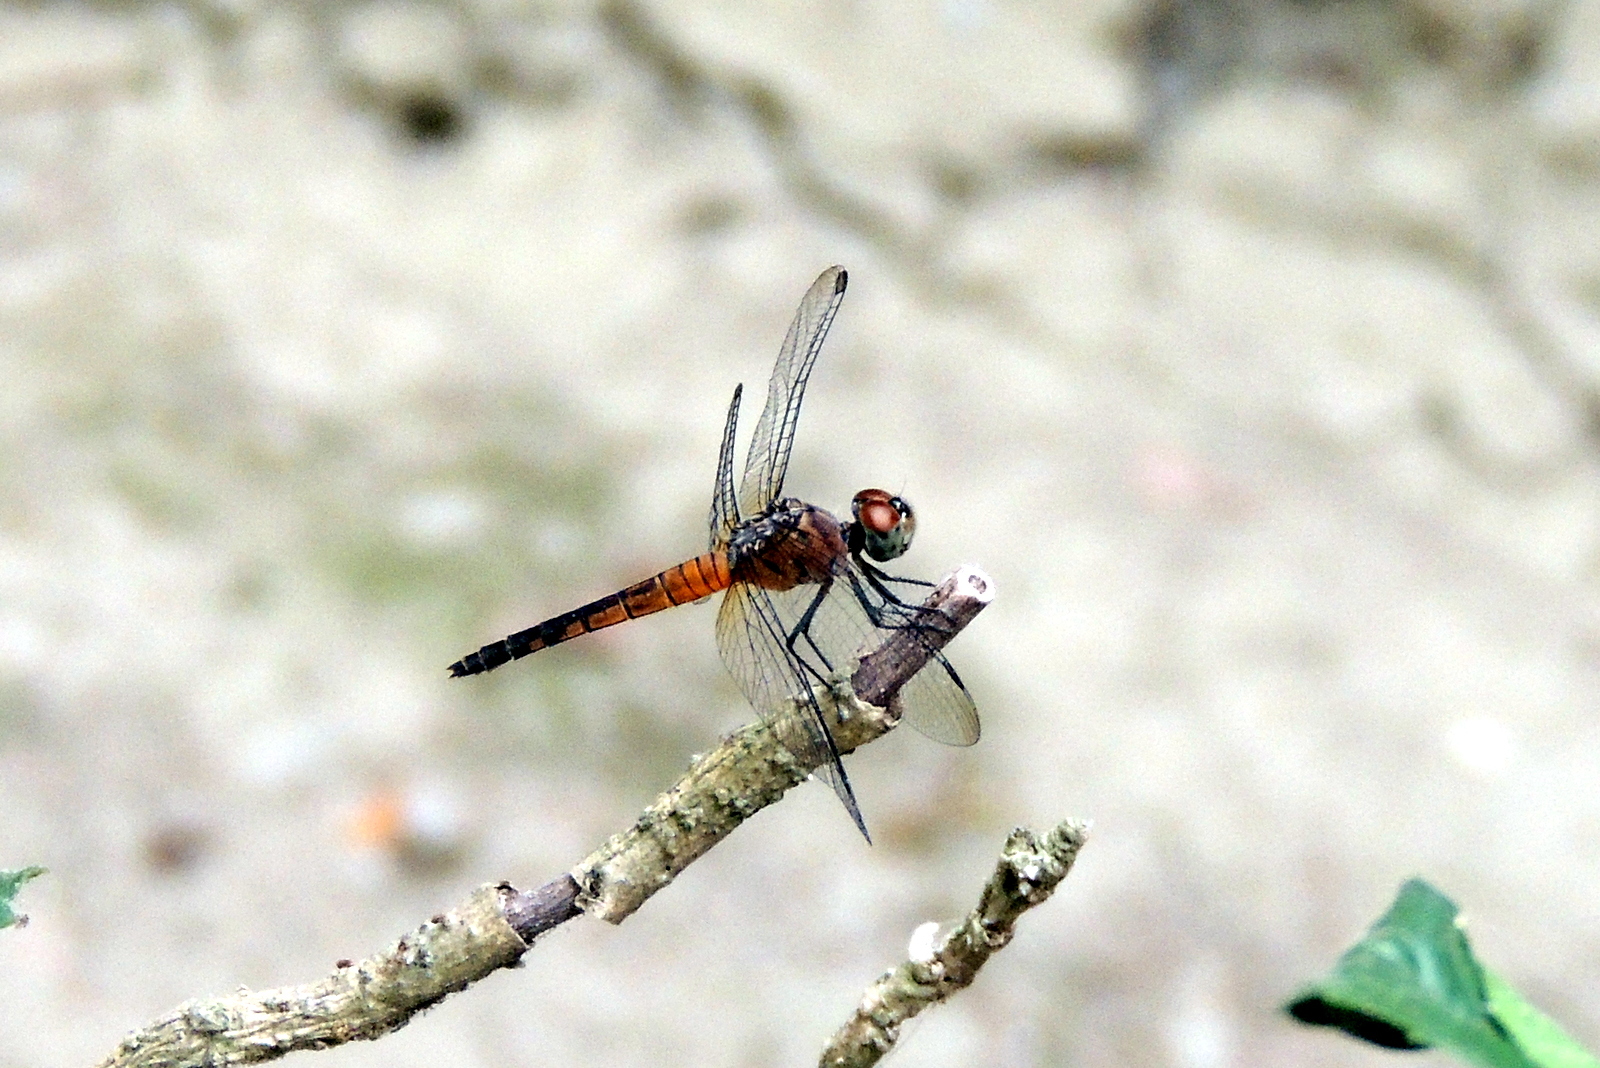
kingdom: Animalia
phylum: Arthropoda
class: Insecta
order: Odonata
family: Libellulidae
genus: Brachydiplax
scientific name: Brachydiplax chalybea
